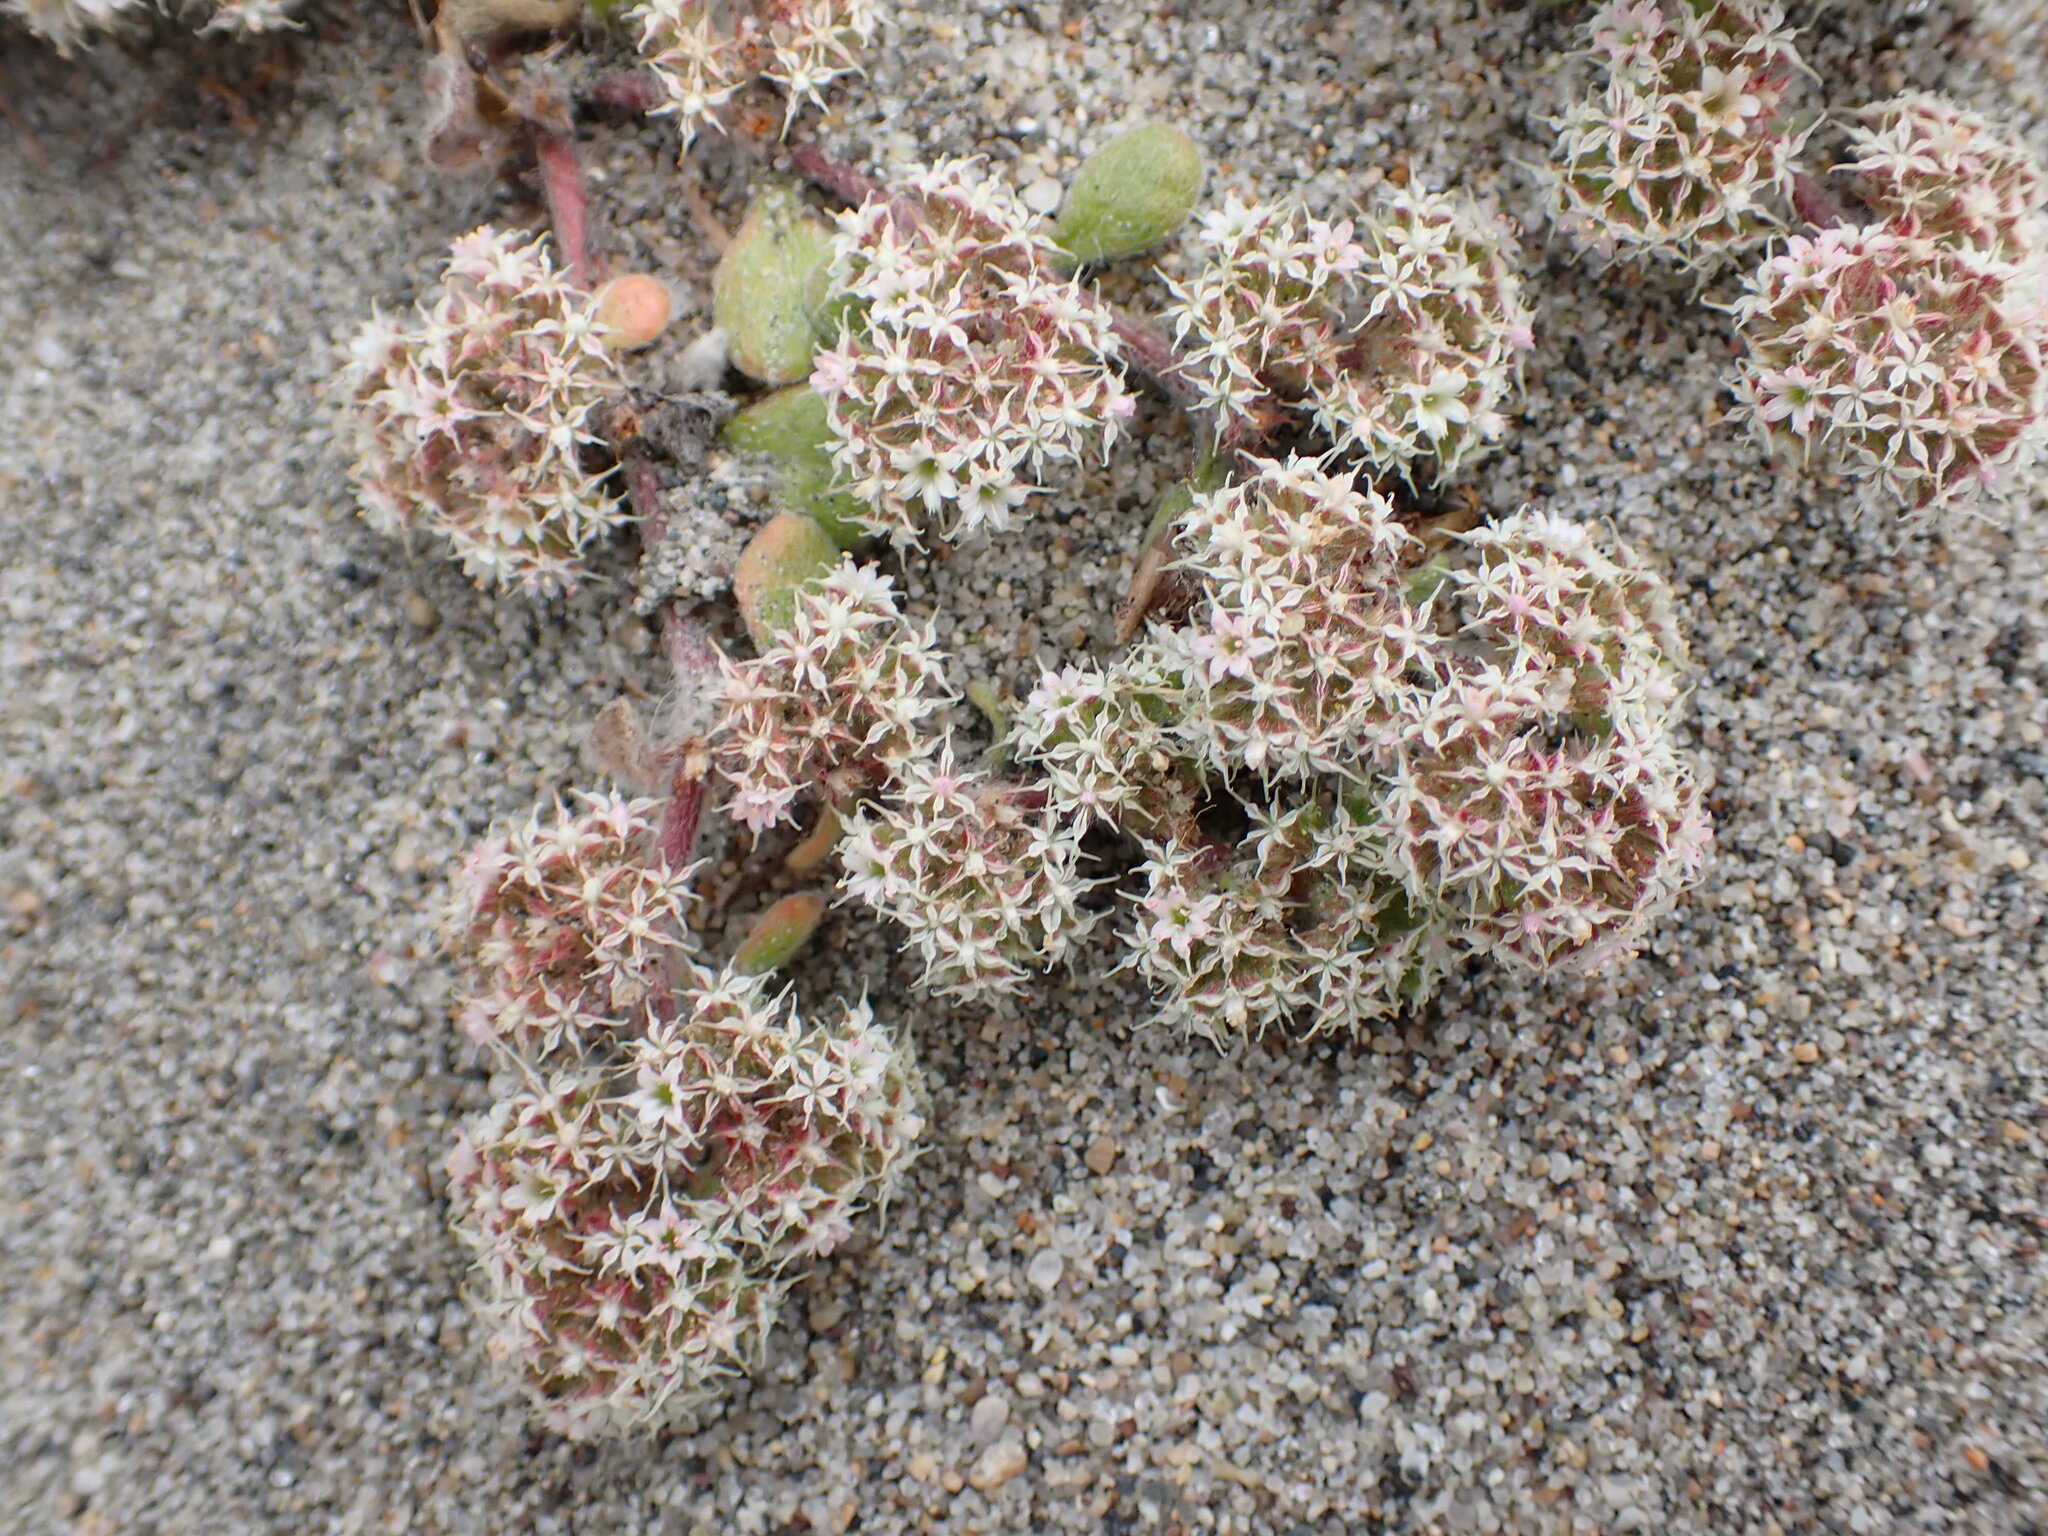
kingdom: Plantae
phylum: Tracheophyta
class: Magnoliopsida
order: Caryophyllales
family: Polygonaceae
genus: Chorizanthe
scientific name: Chorizanthe pungens
